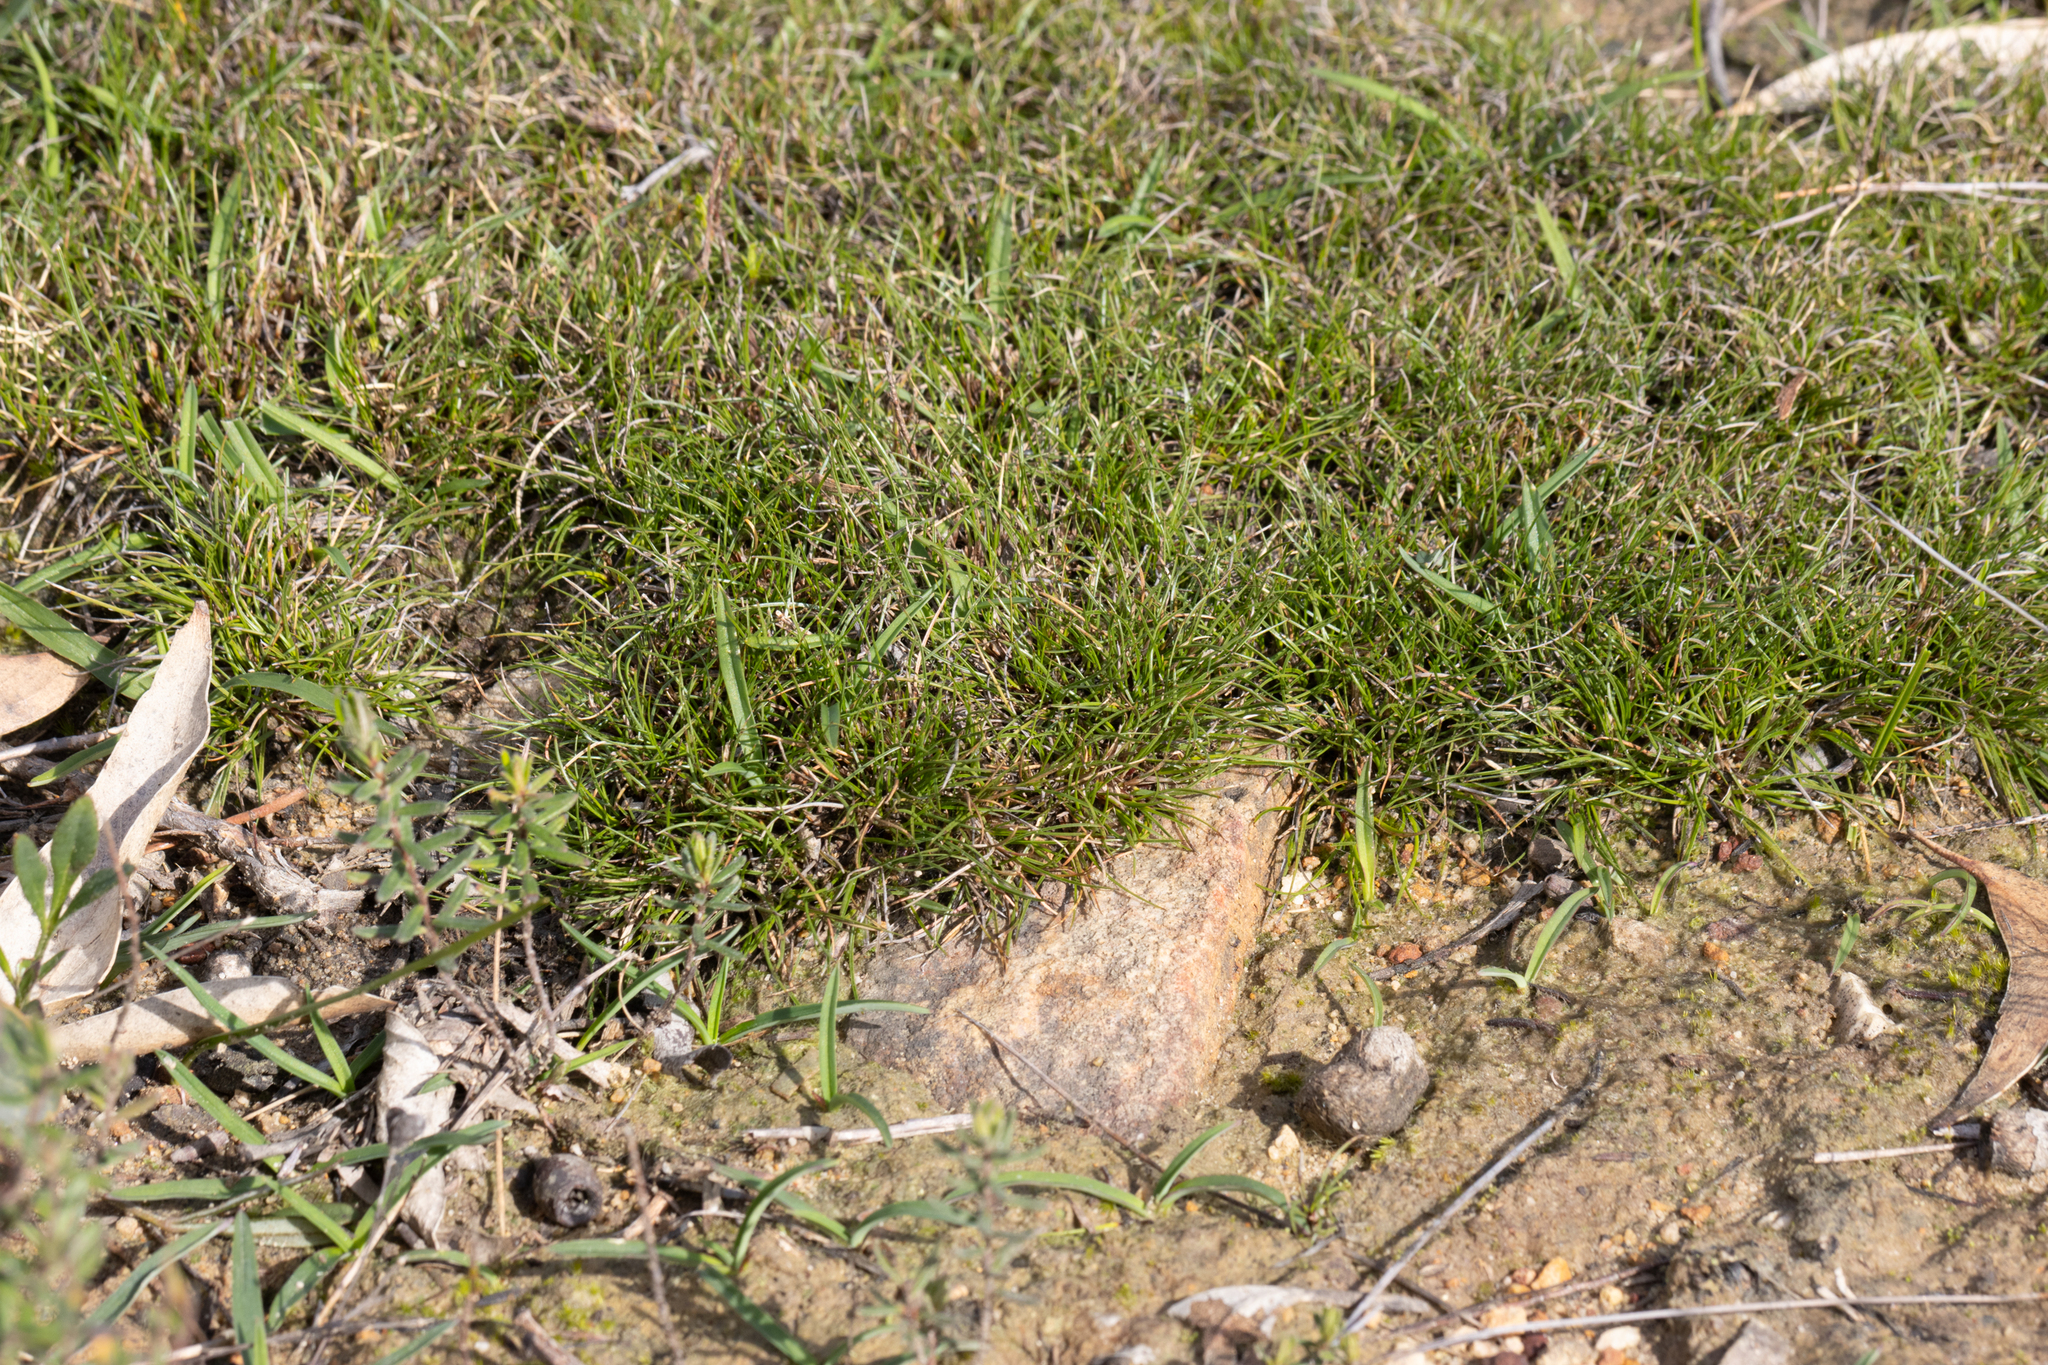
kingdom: Plantae
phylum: Tracheophyta
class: Liliopsida
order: Poales
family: Cyperaceae
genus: Schoenus
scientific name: Schoenus breviculmis
